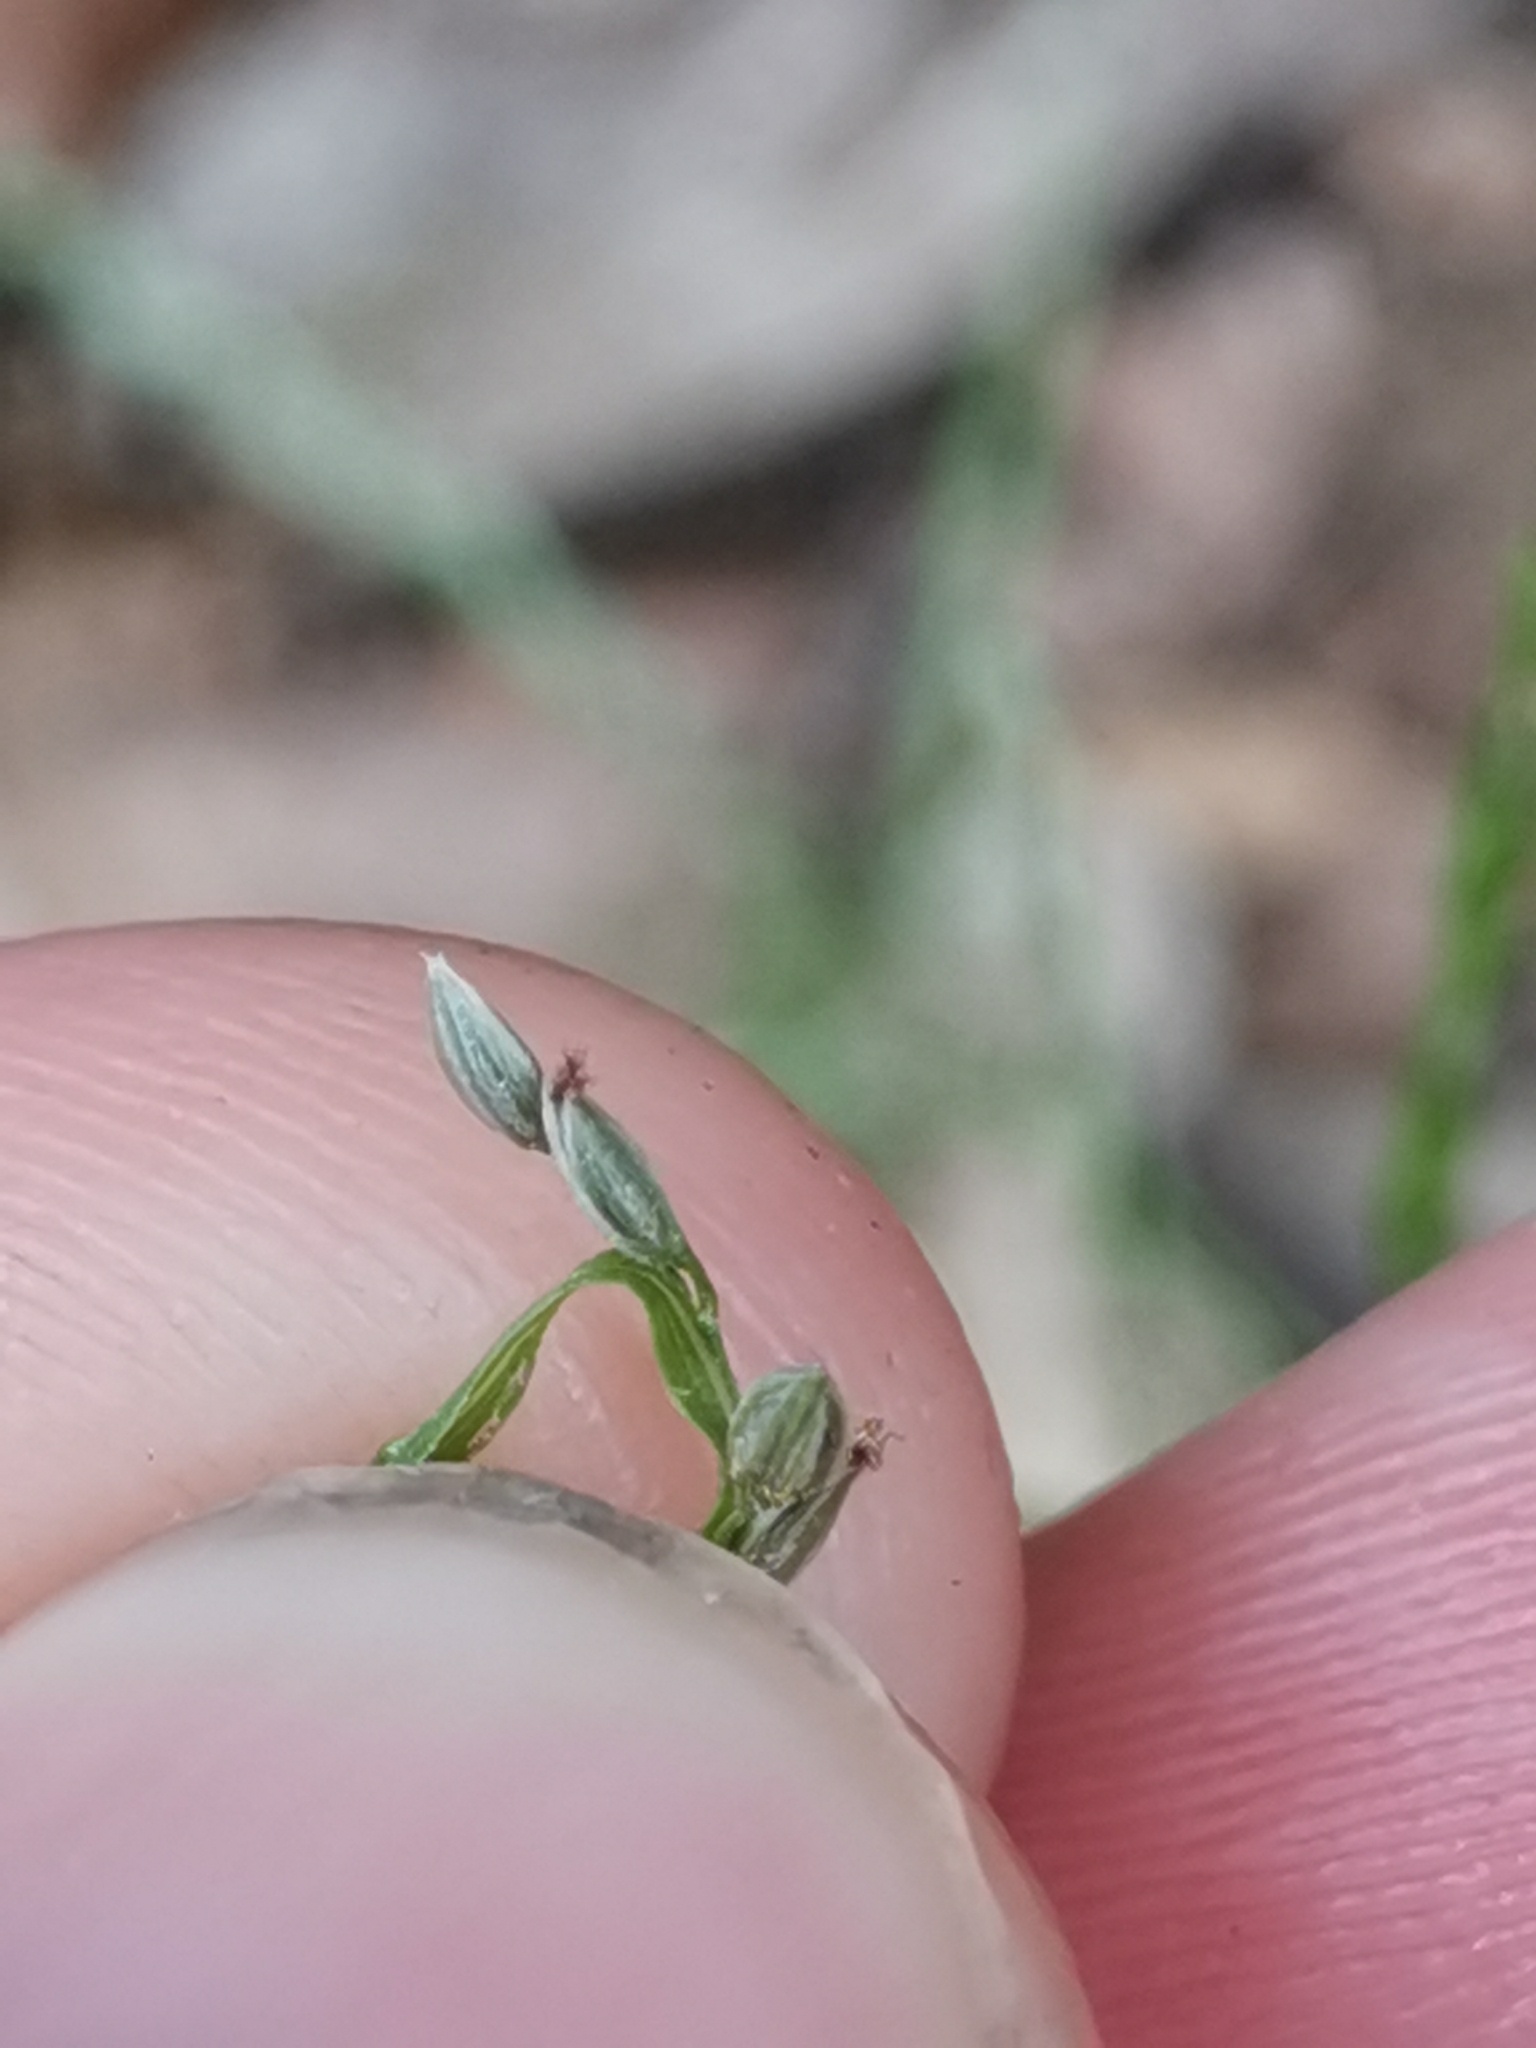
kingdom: Plantae
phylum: Tracheophyta
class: Liliopsida
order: Poales
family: Poaceae
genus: Digitaria
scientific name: Digitaria ischaemum
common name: Smooth crabgrass
